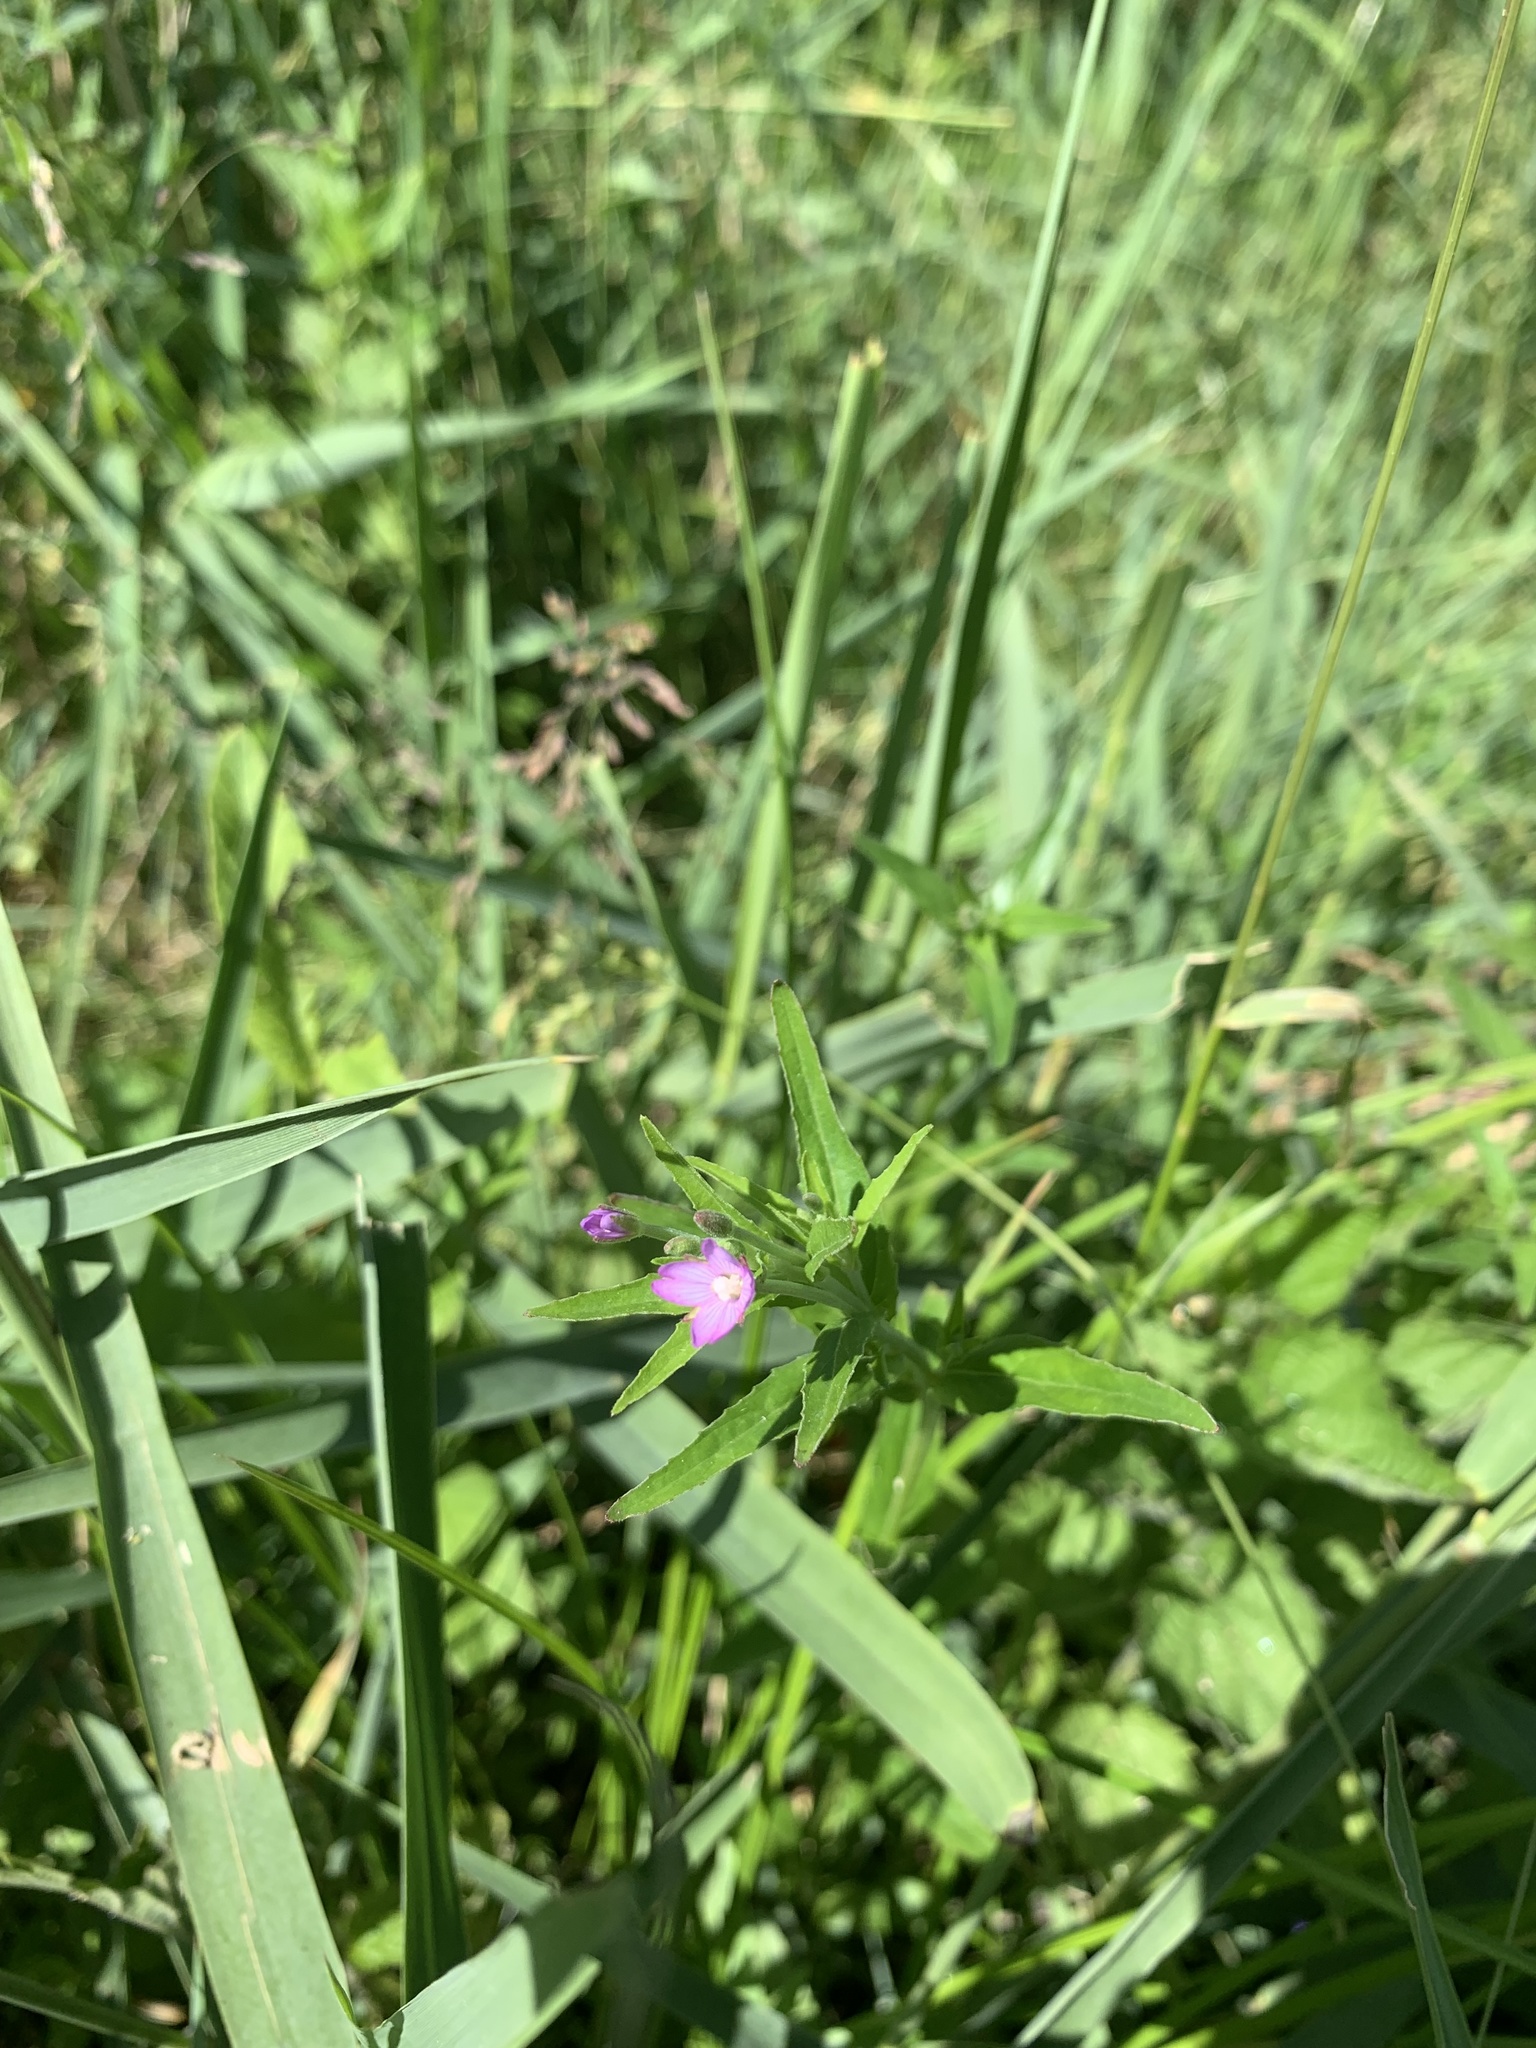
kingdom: Plantae
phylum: Tracheophyta
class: Magnoliopsida
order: Myrtales
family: Onagraceae
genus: Epilobium
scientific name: Epilobium lamyi
